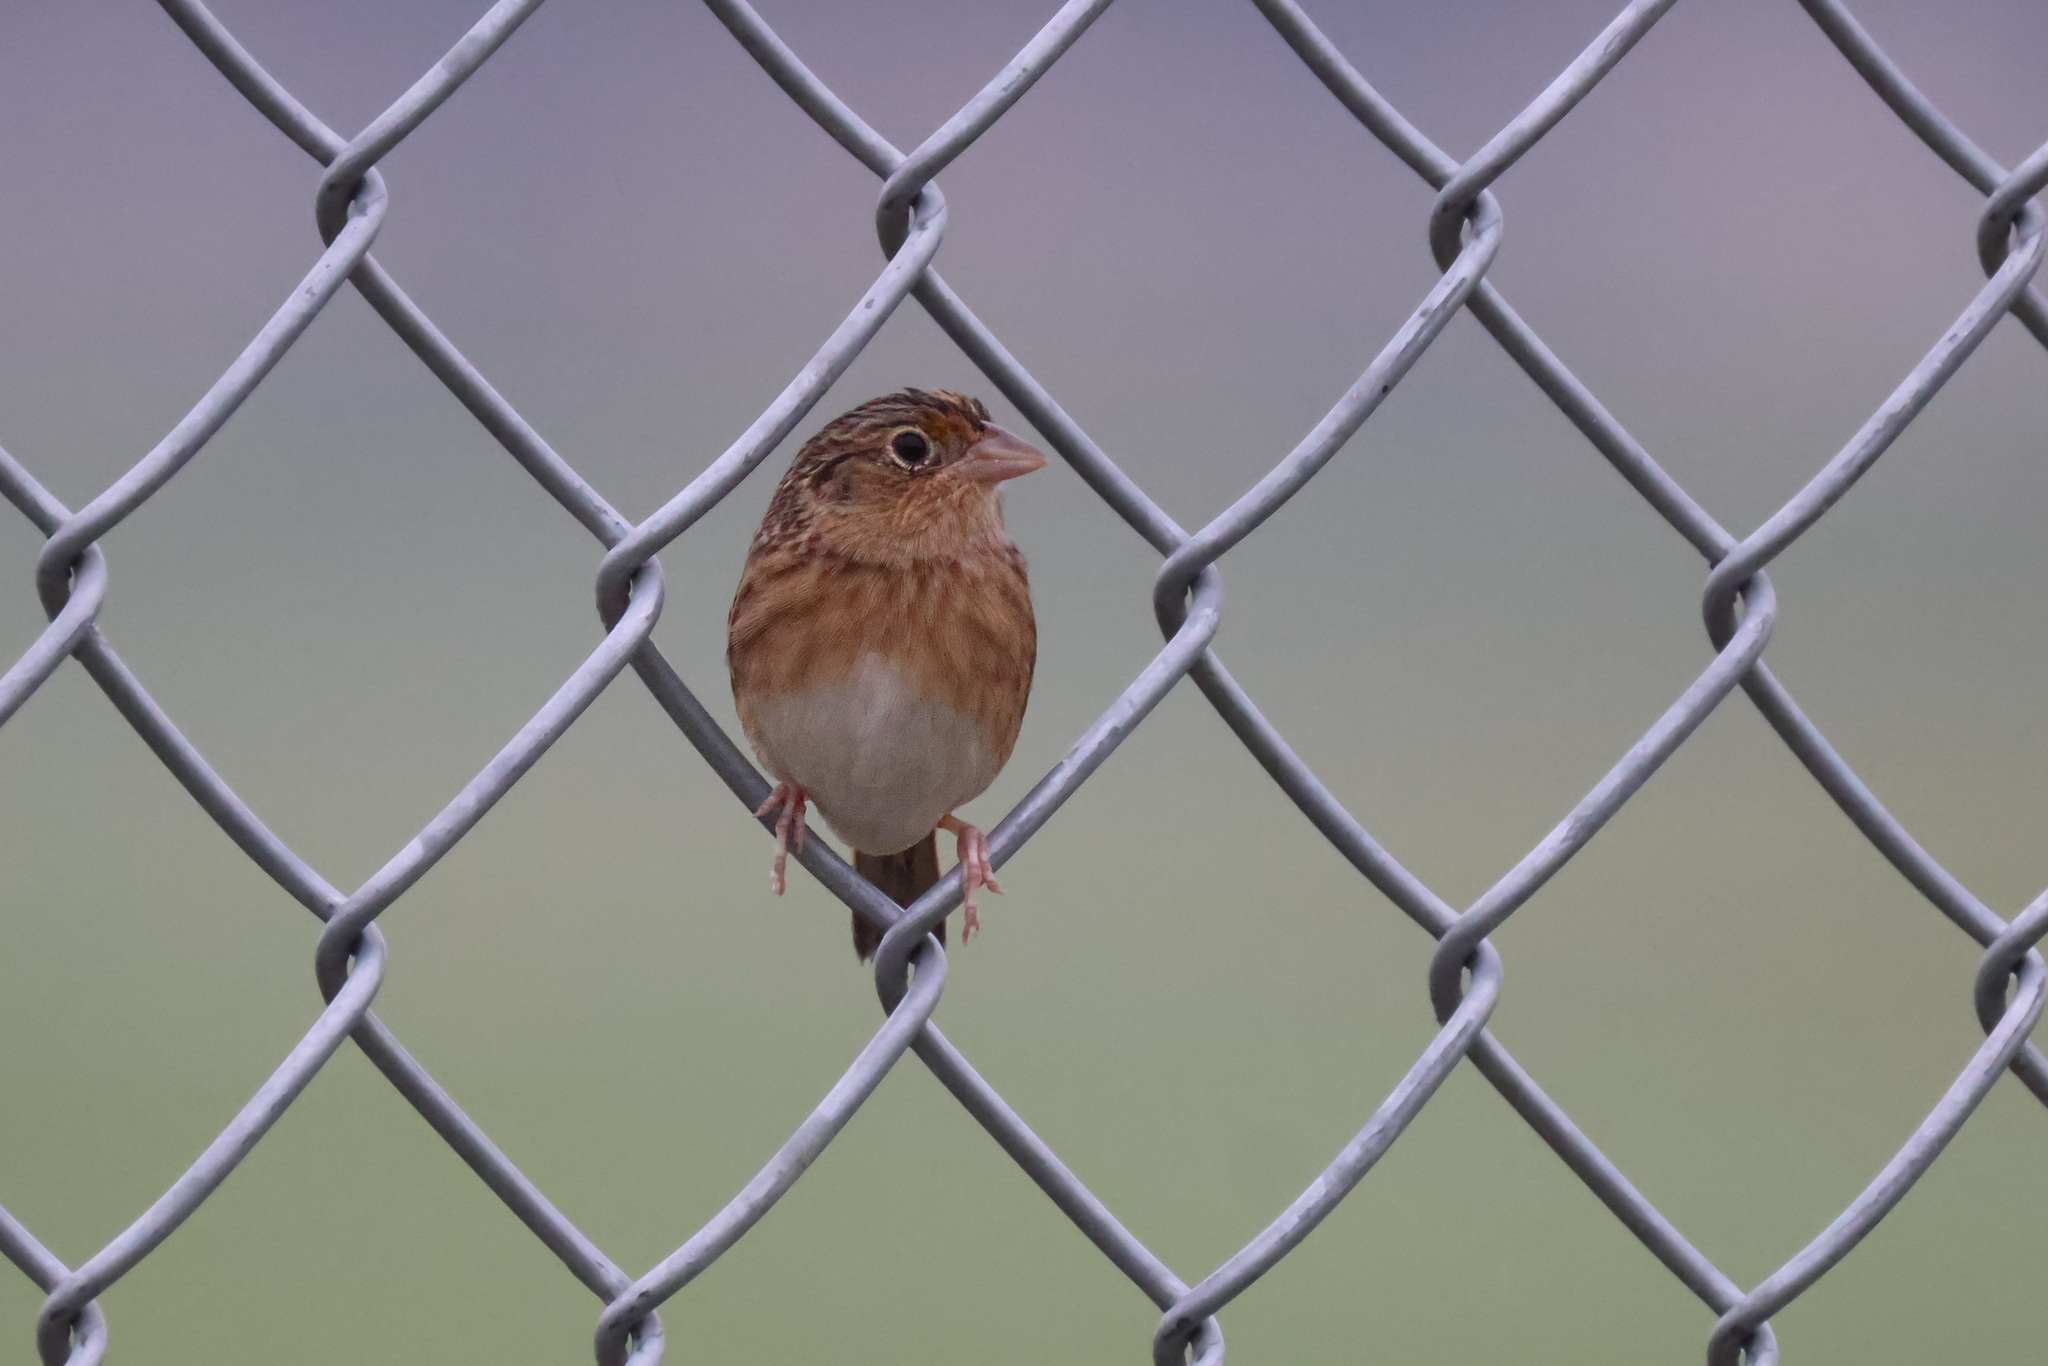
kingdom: Animalia
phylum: Chordata
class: Aves
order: Passeriformes
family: Passerellidae
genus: Ammodramus
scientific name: Ammodramus savannarum
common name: Grasshopper sparrow
